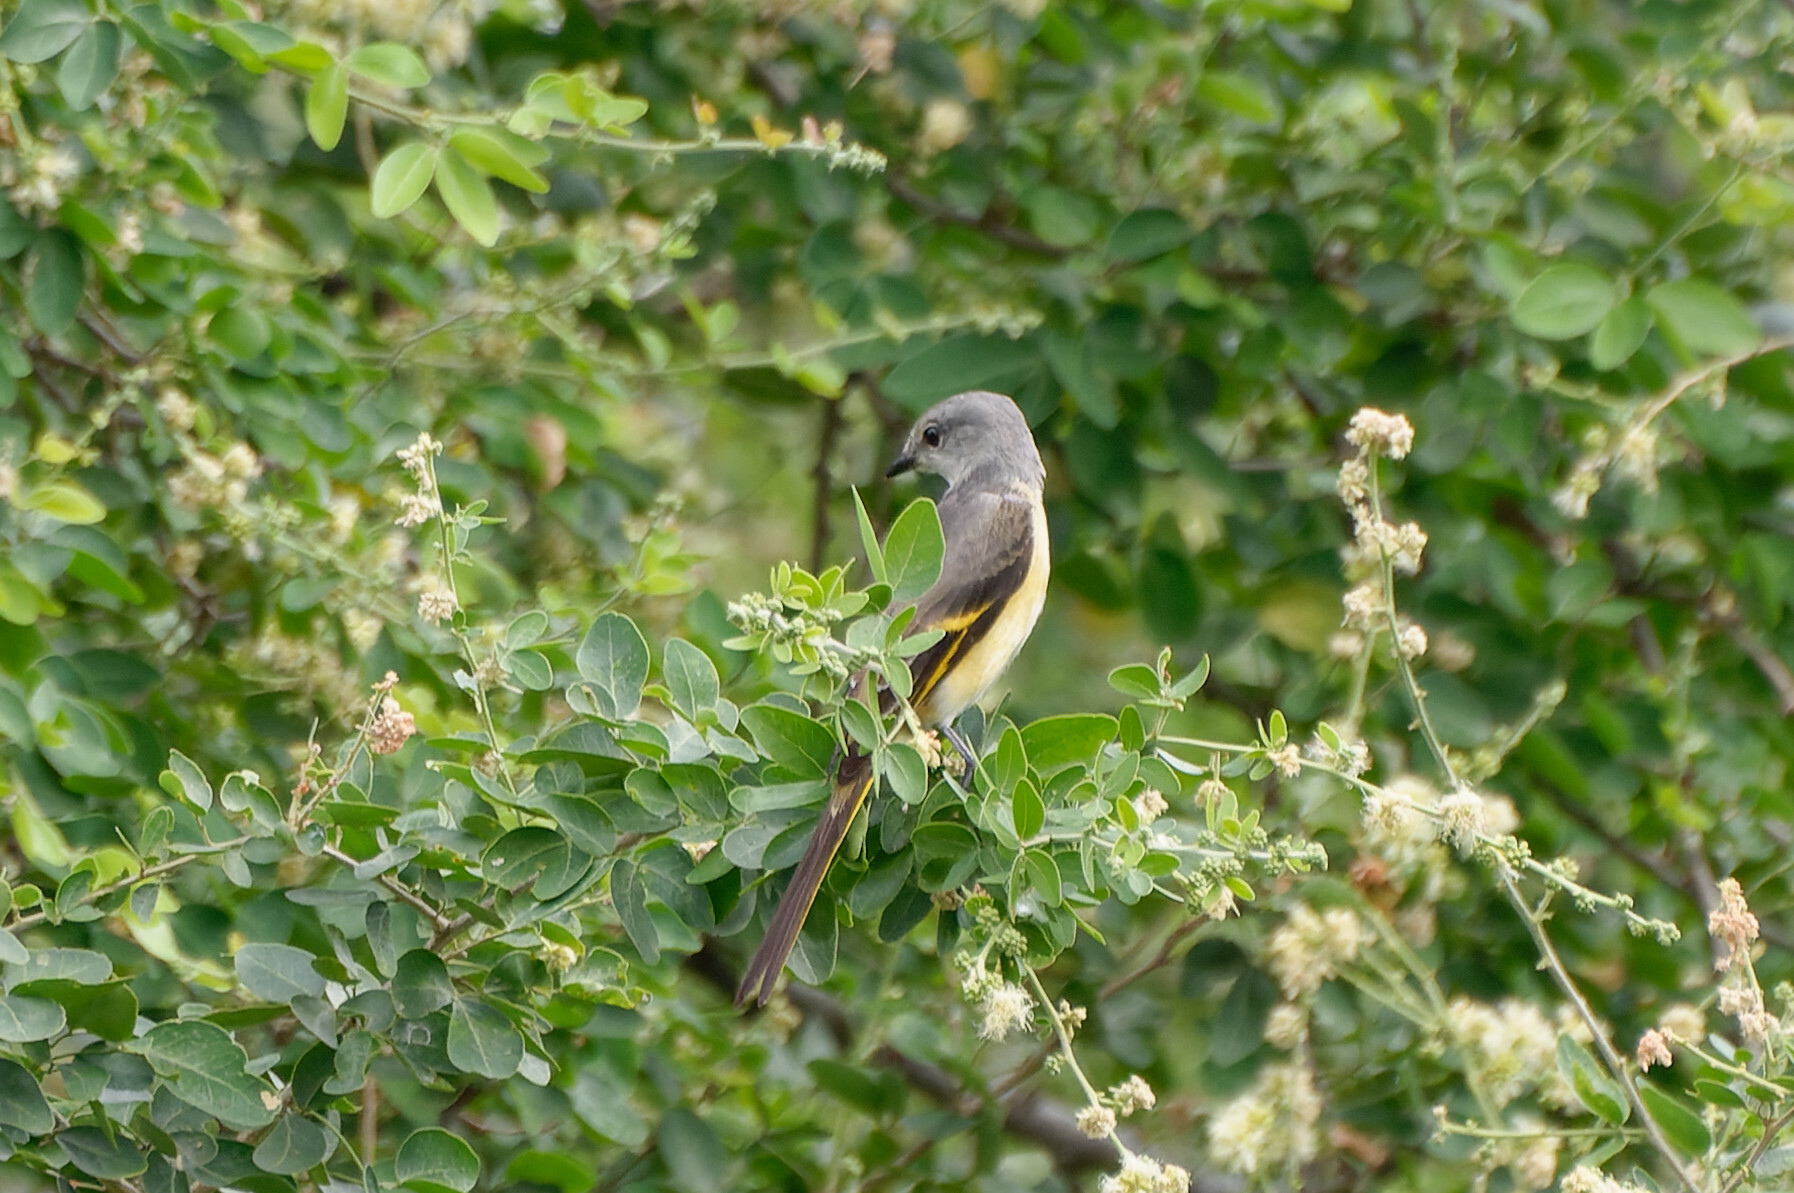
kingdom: Animalia
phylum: Chordata
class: Aves
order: Passeriformes
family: Campephagidae
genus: Pericrocotus
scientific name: Pericrocotus roseus
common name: Rosy minivet
